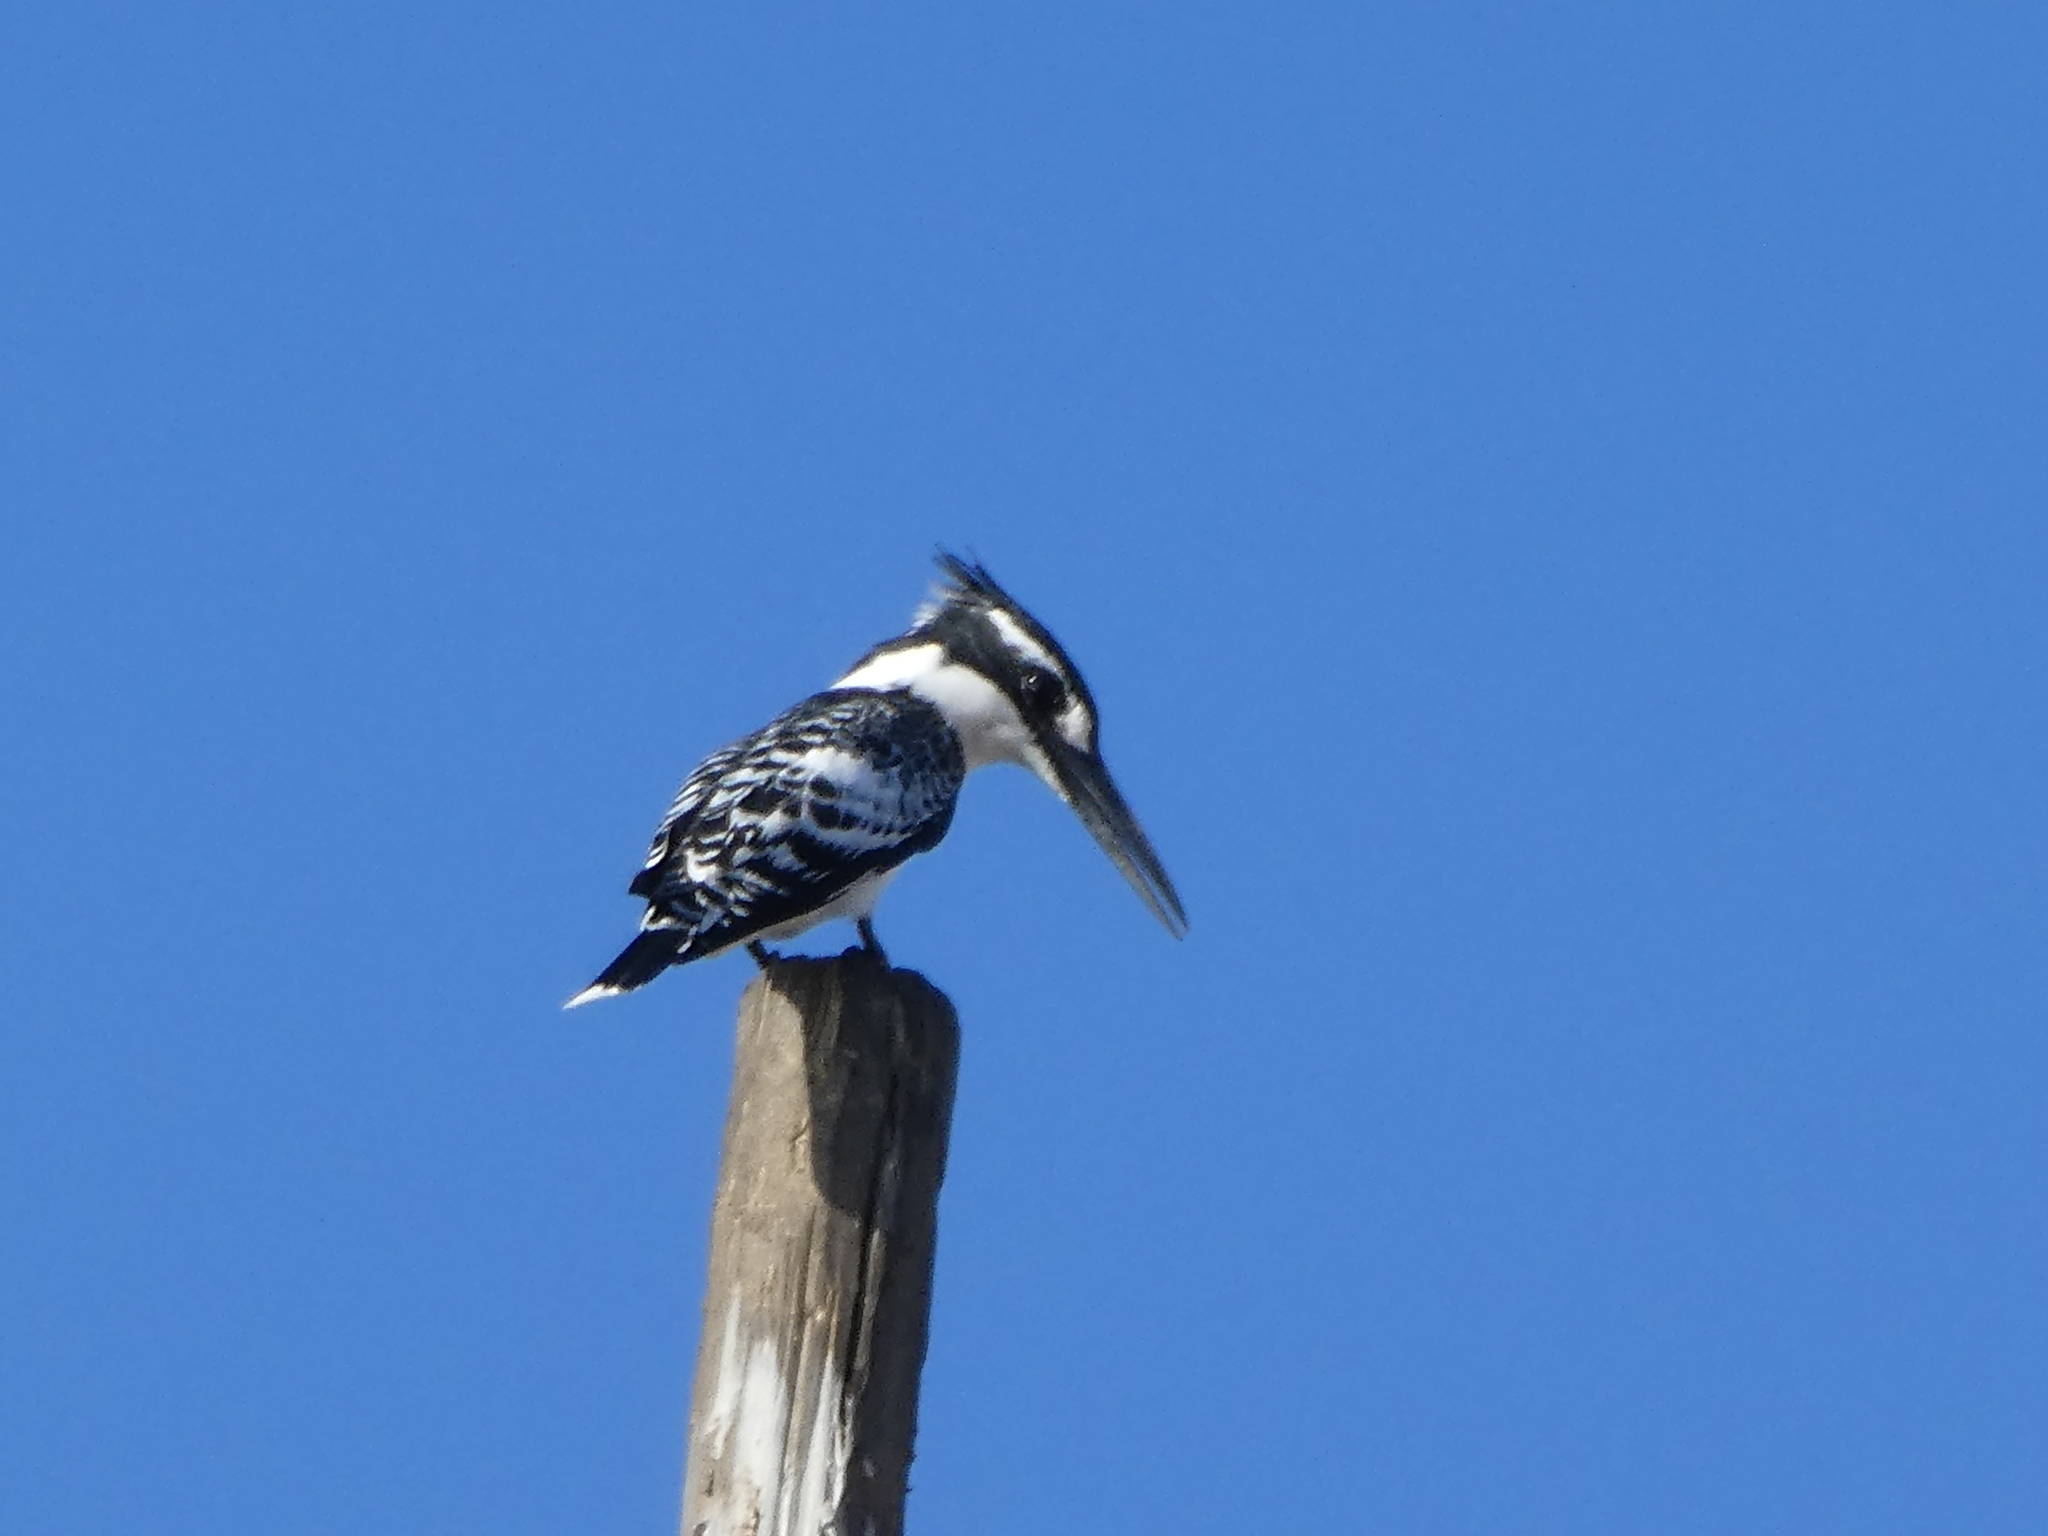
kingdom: Animalia
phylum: Chordata
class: Aves
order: Coraciiformes
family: Alcedinidae
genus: Ceryle
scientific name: Ceryle rudis
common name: Pied kingfisher
